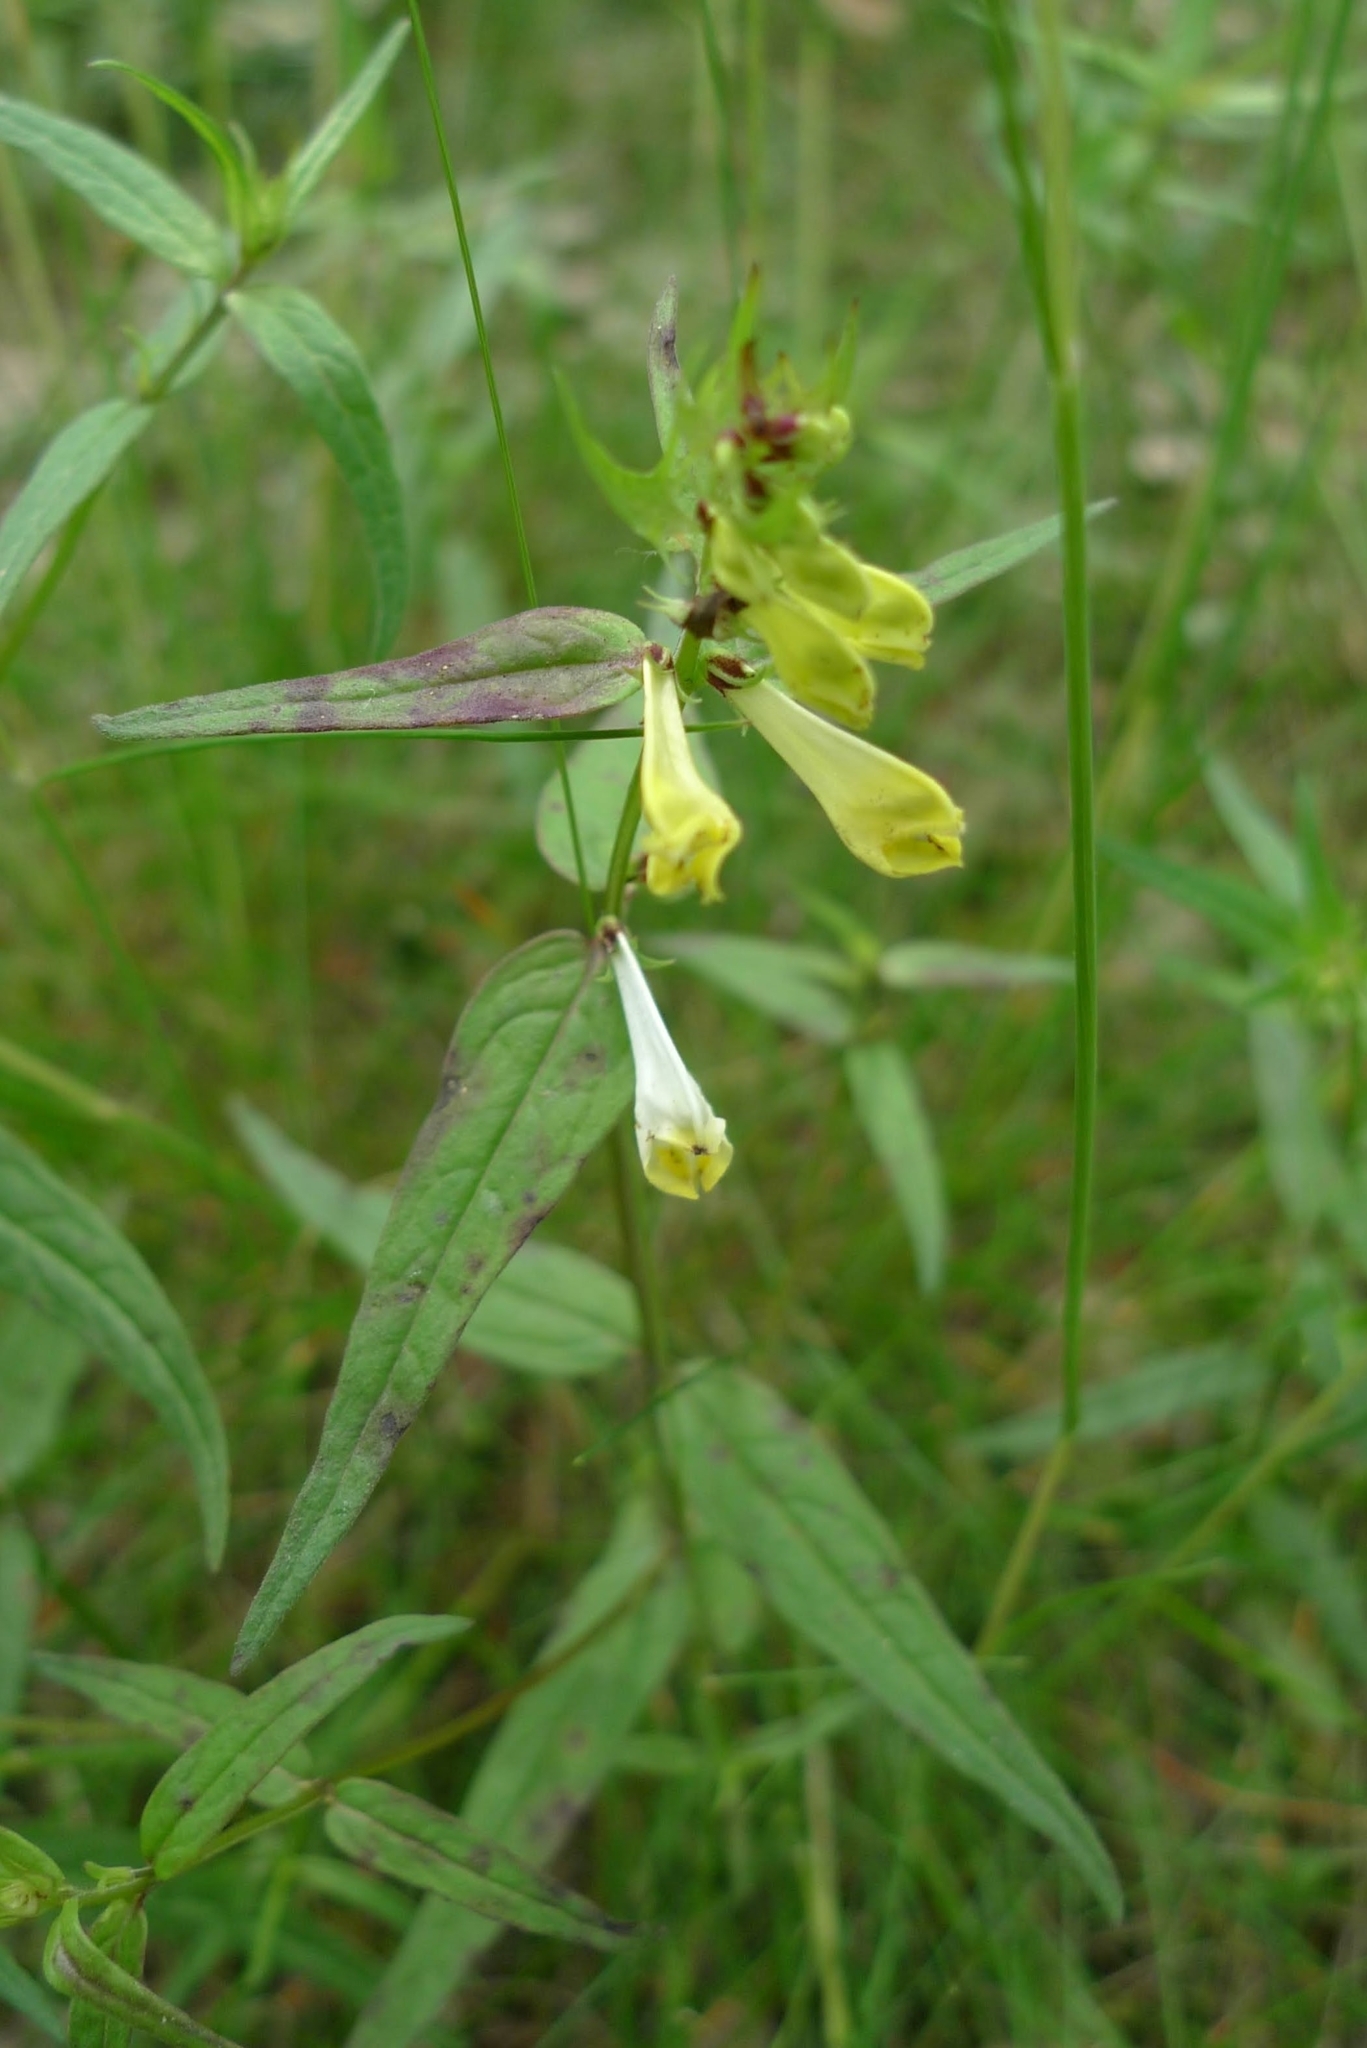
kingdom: Plantae
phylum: Tracheophyta
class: Magnoliopsida
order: Lamiales
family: Orobanchaceae
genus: Melampyrum
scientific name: Melampyrum pratense
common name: Common cow-wheat
